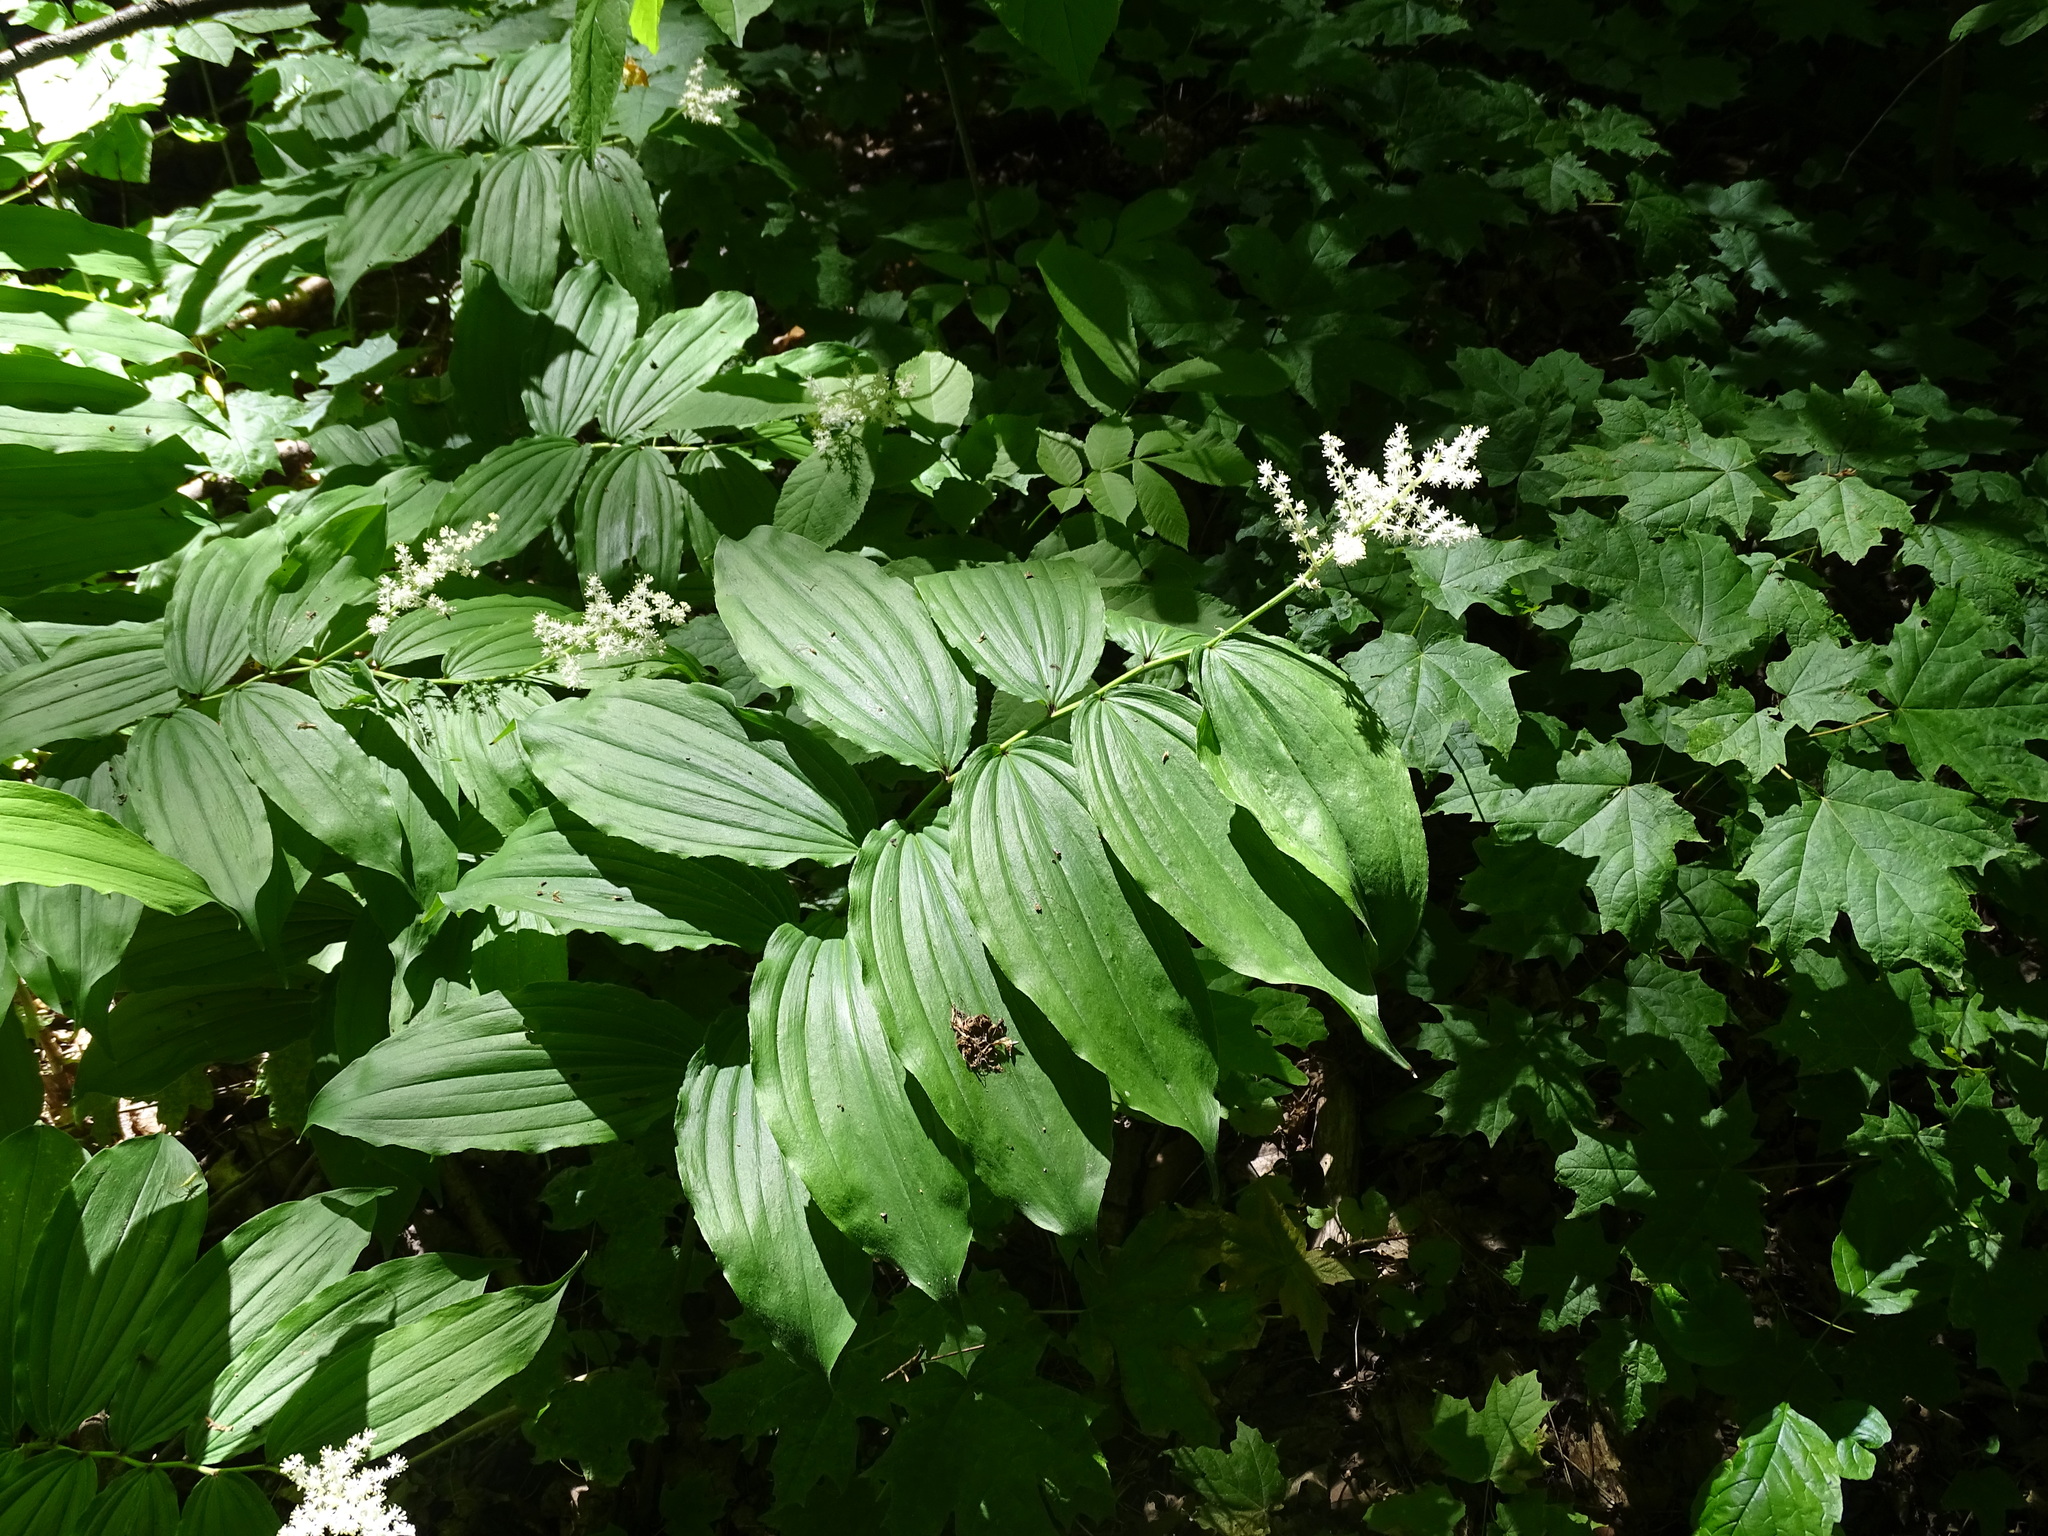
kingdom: Plantae
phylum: Tracheophyta
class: Liliopsida
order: Asparagales
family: Asparagaceae
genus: Maianthemum
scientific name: Maianthemum racemosum
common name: False spikenard
